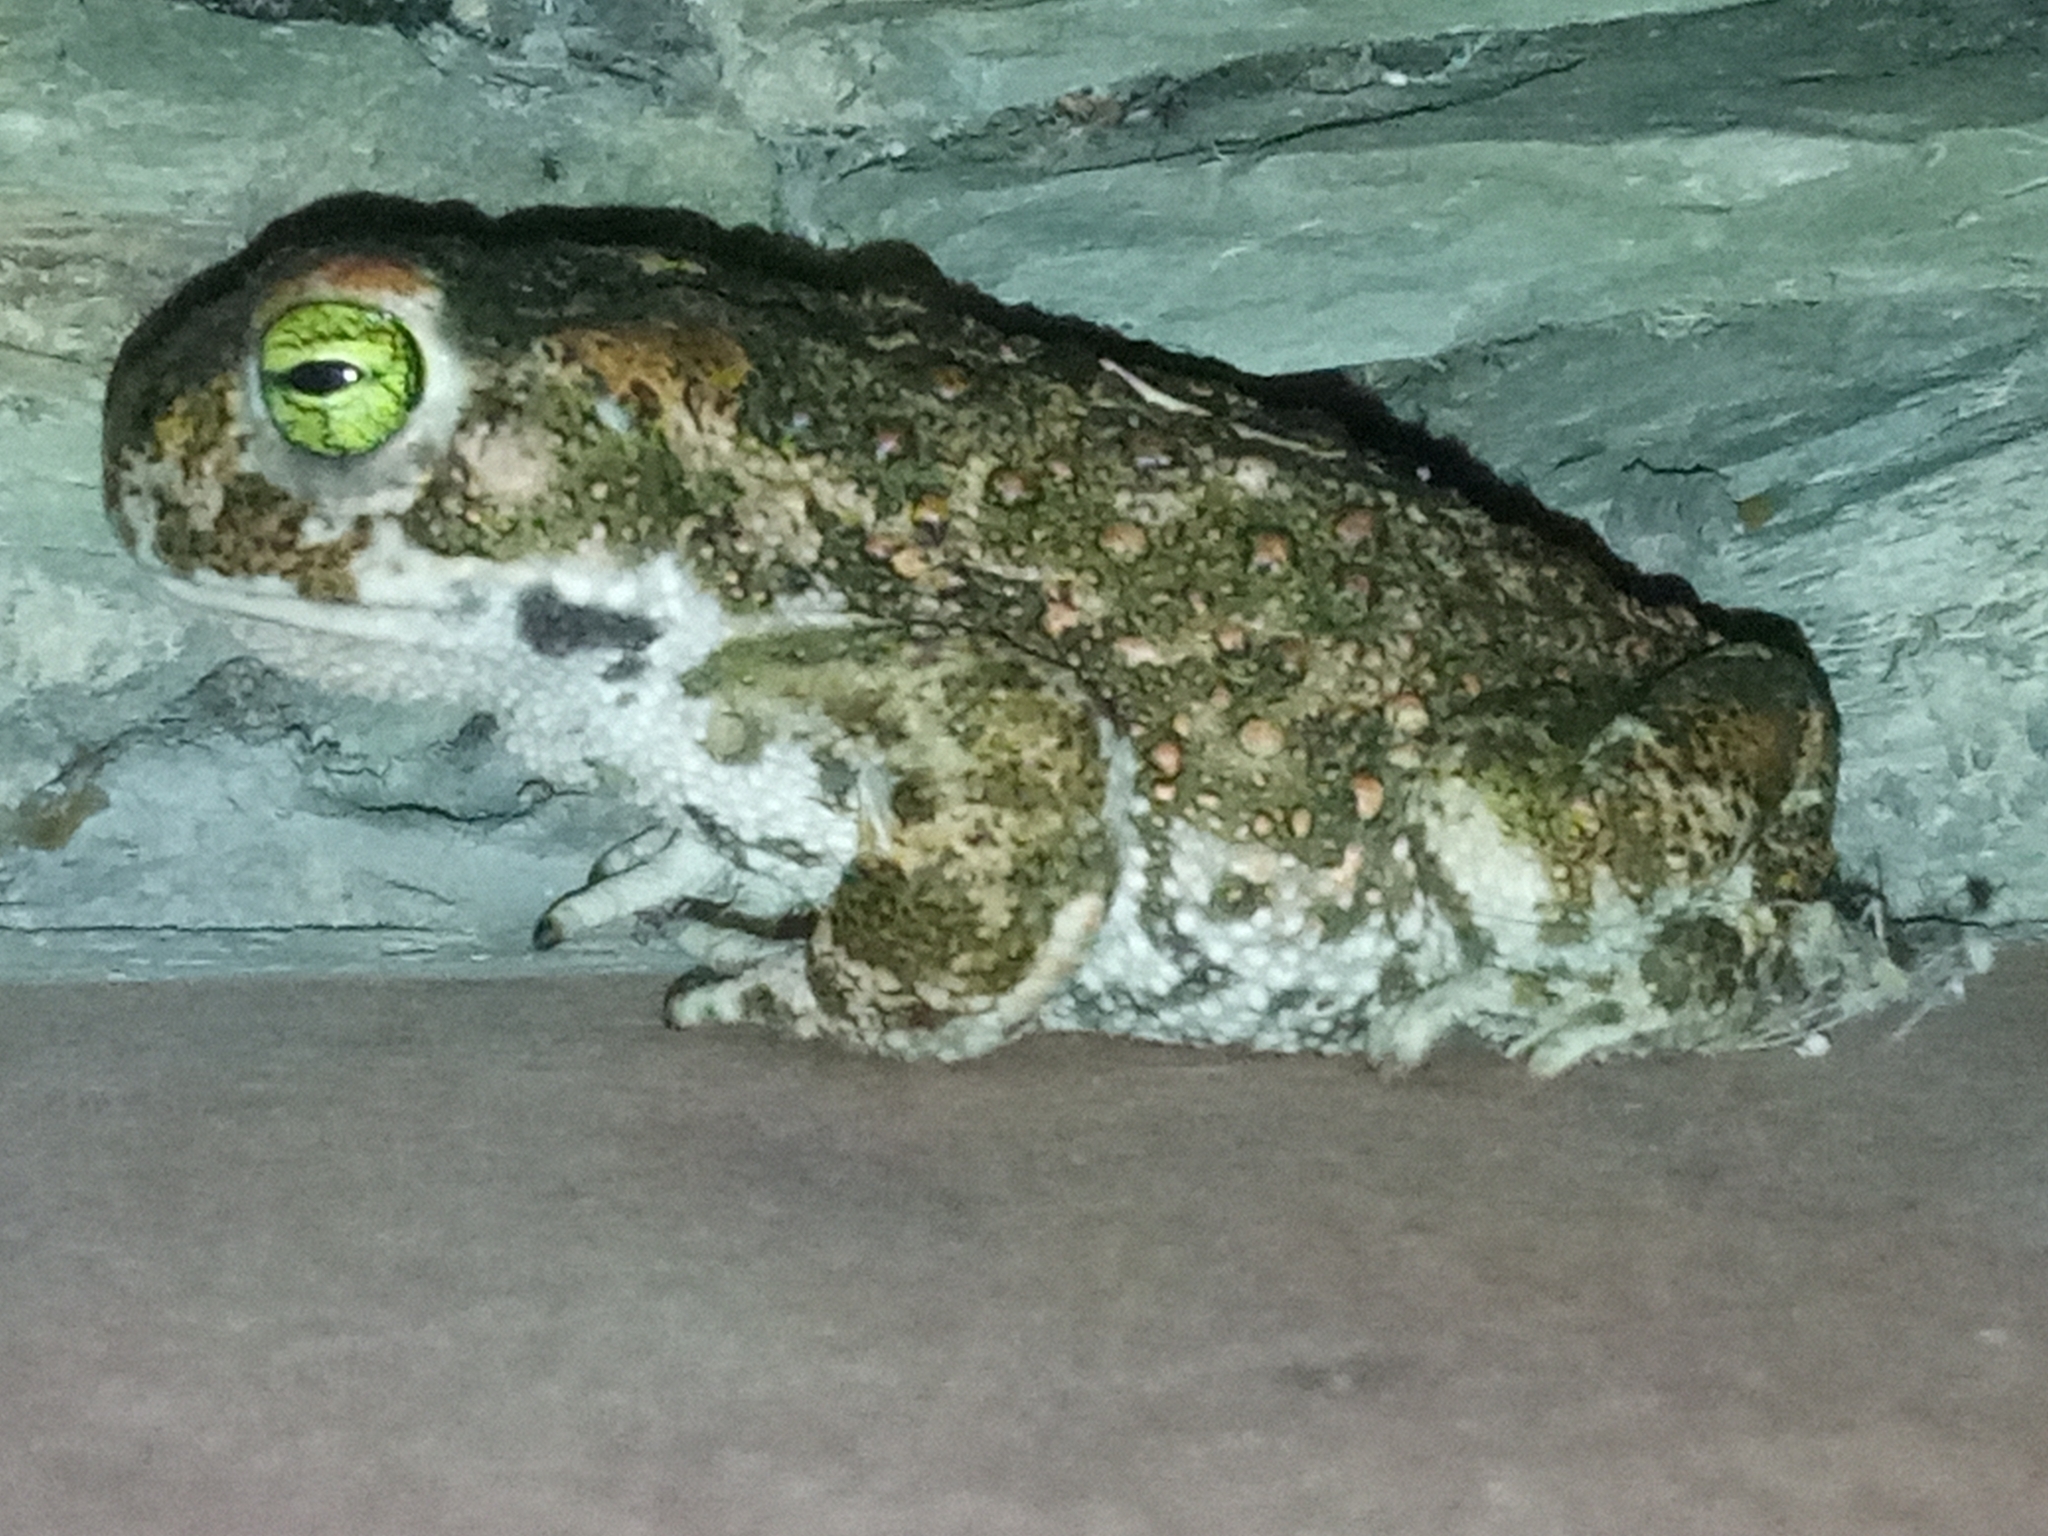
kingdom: Animalia
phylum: Chordata
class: Amphibia
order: Anura
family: Bufonidae
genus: Epidalea
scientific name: Epidalea calamita
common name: Natterjack toad
